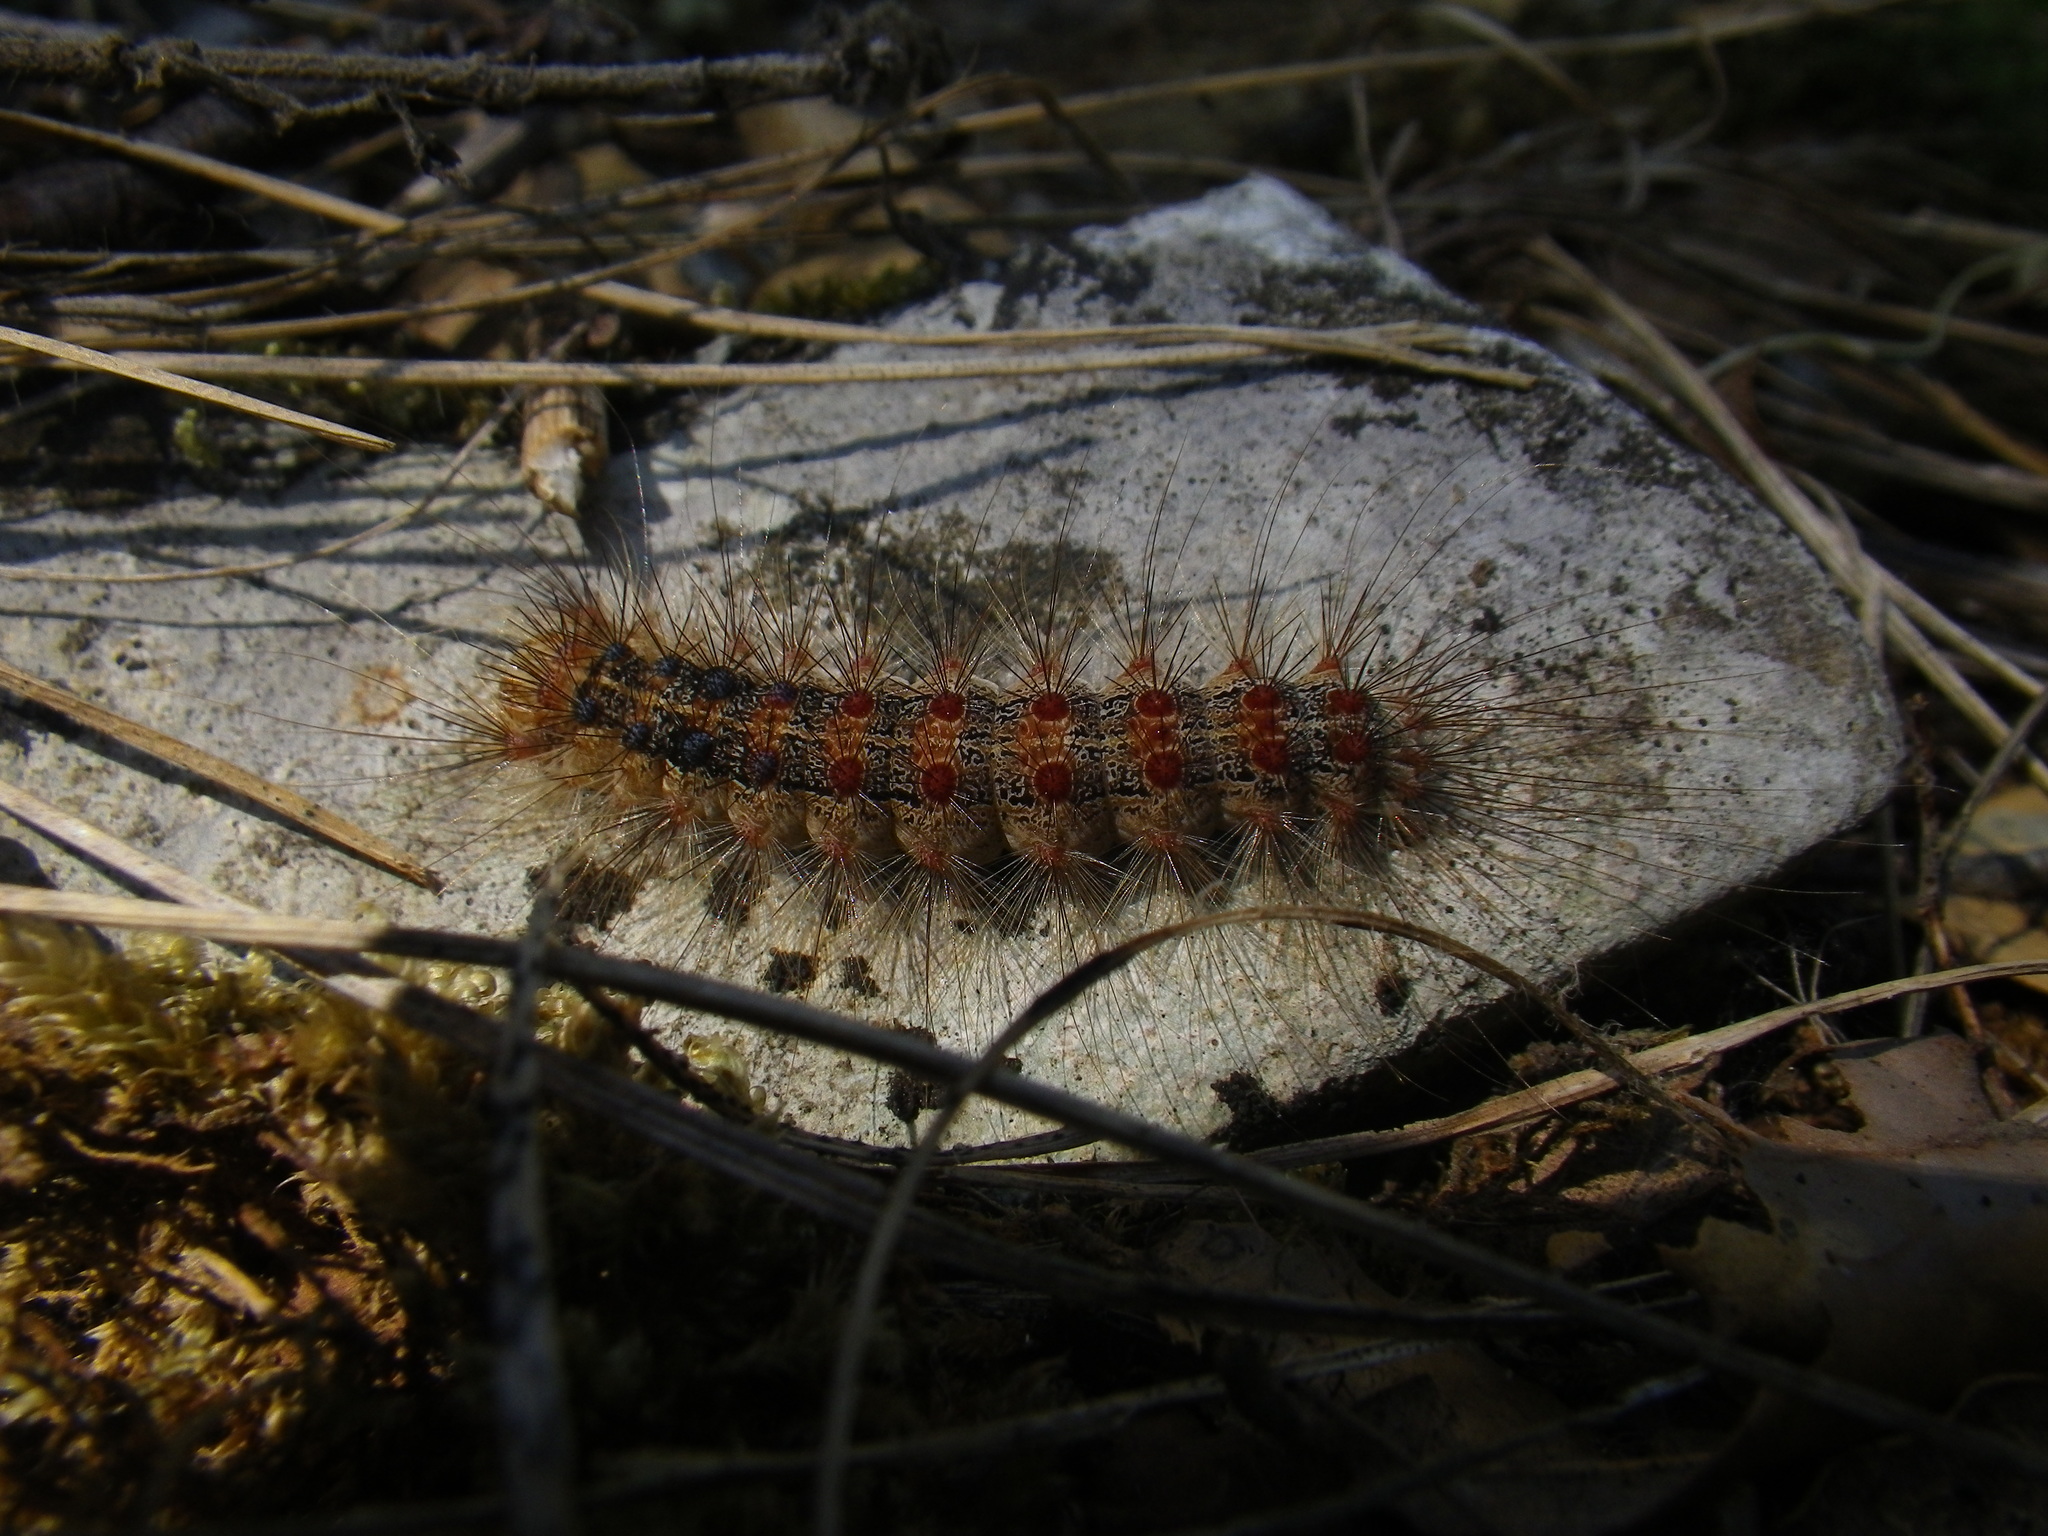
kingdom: Animalia
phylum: Arthropoda
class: Insecta
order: Lepidoptera
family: Erebidae
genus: Lymantria
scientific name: Lymantria dispar
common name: Gypsy moth
